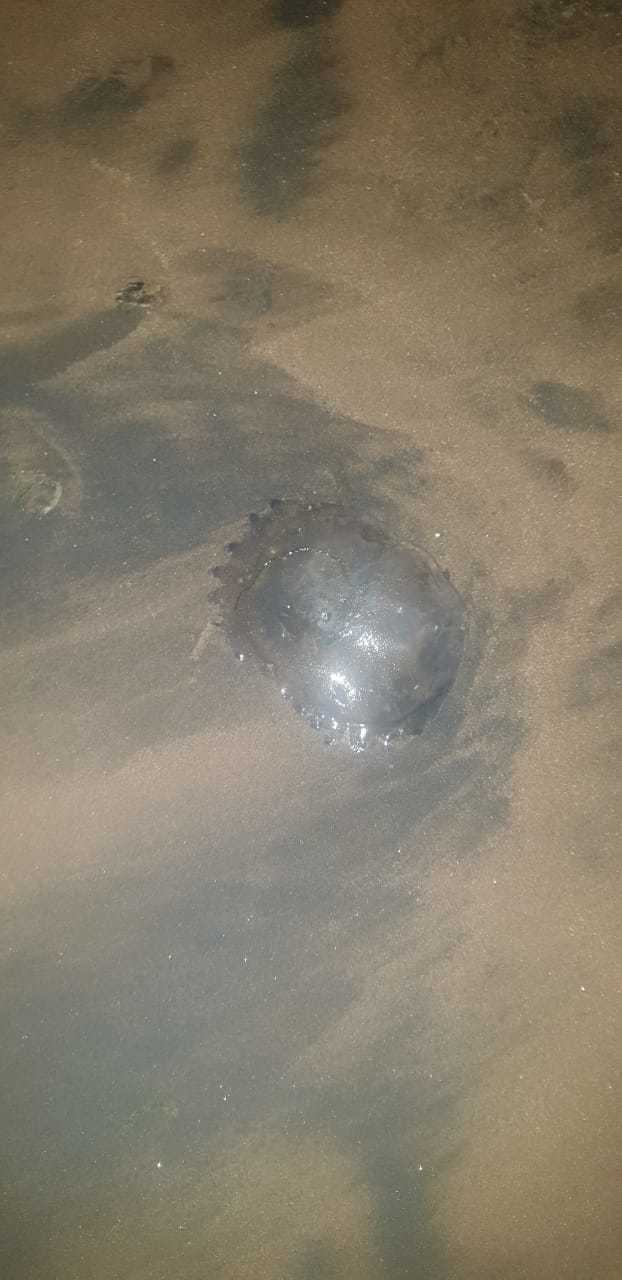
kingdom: Animalia
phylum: Cnidaria
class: Scyphozoa
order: Rhizostomeae
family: Lychnorhizidae
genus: Lychnorhiza
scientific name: Lychnorhiza lucerna
